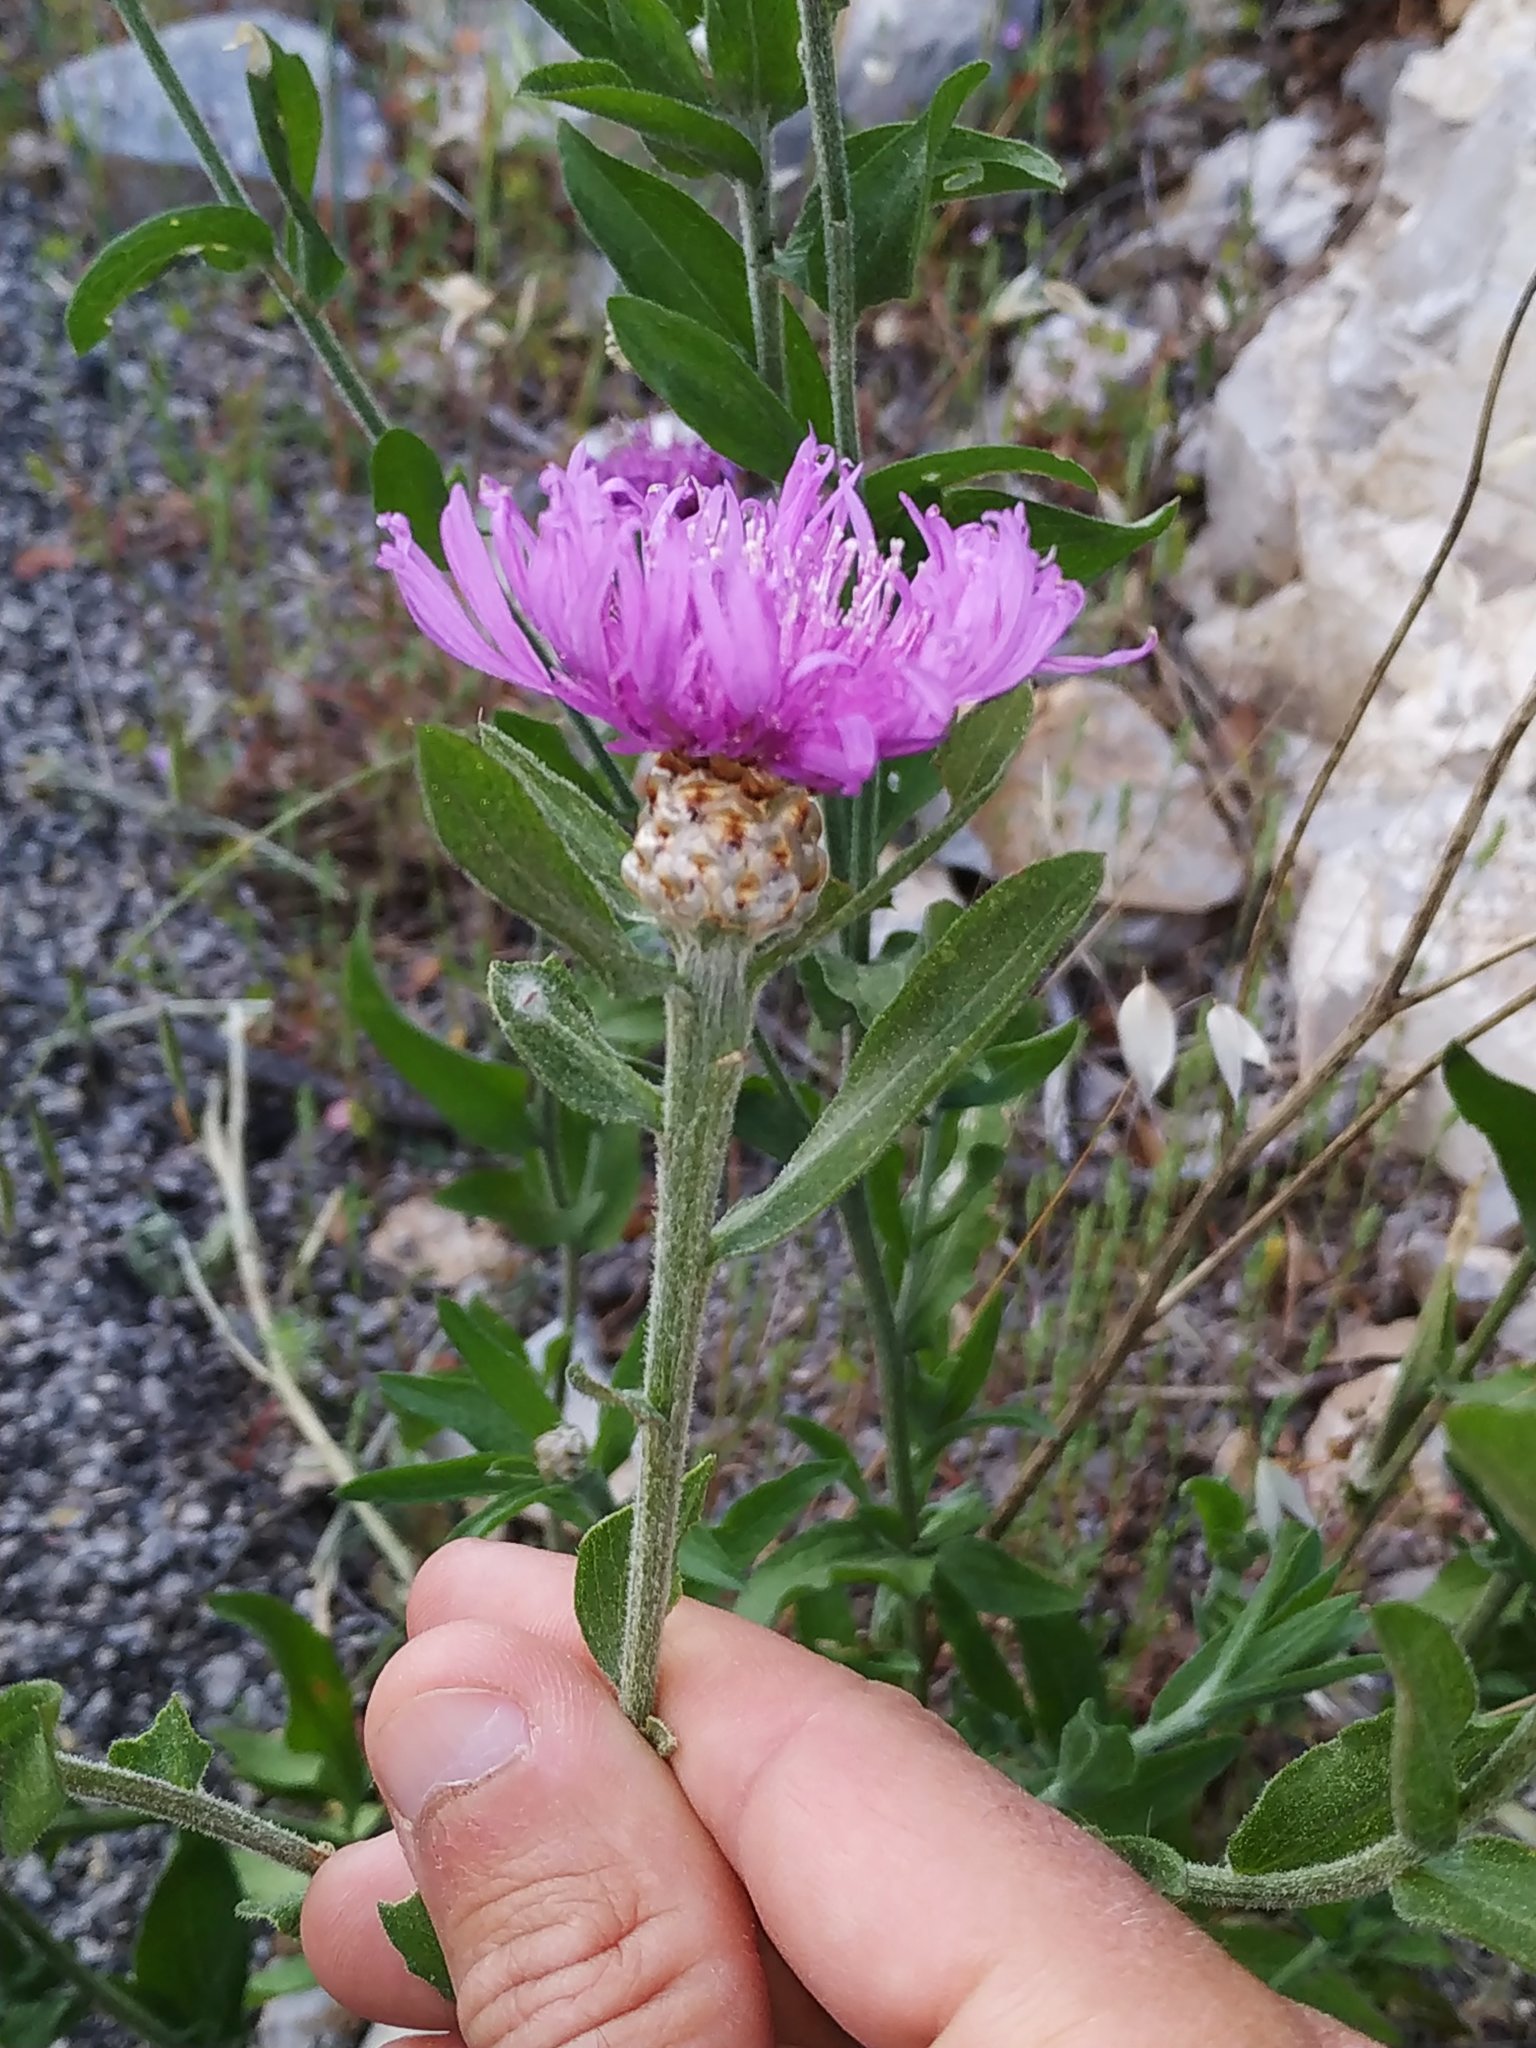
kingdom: Plantae
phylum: Tracheophyta
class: Magnoliopsida
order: Asterales
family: Asteraceae
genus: Centaurea
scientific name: Centaurea jacea
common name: Brown knapweed
